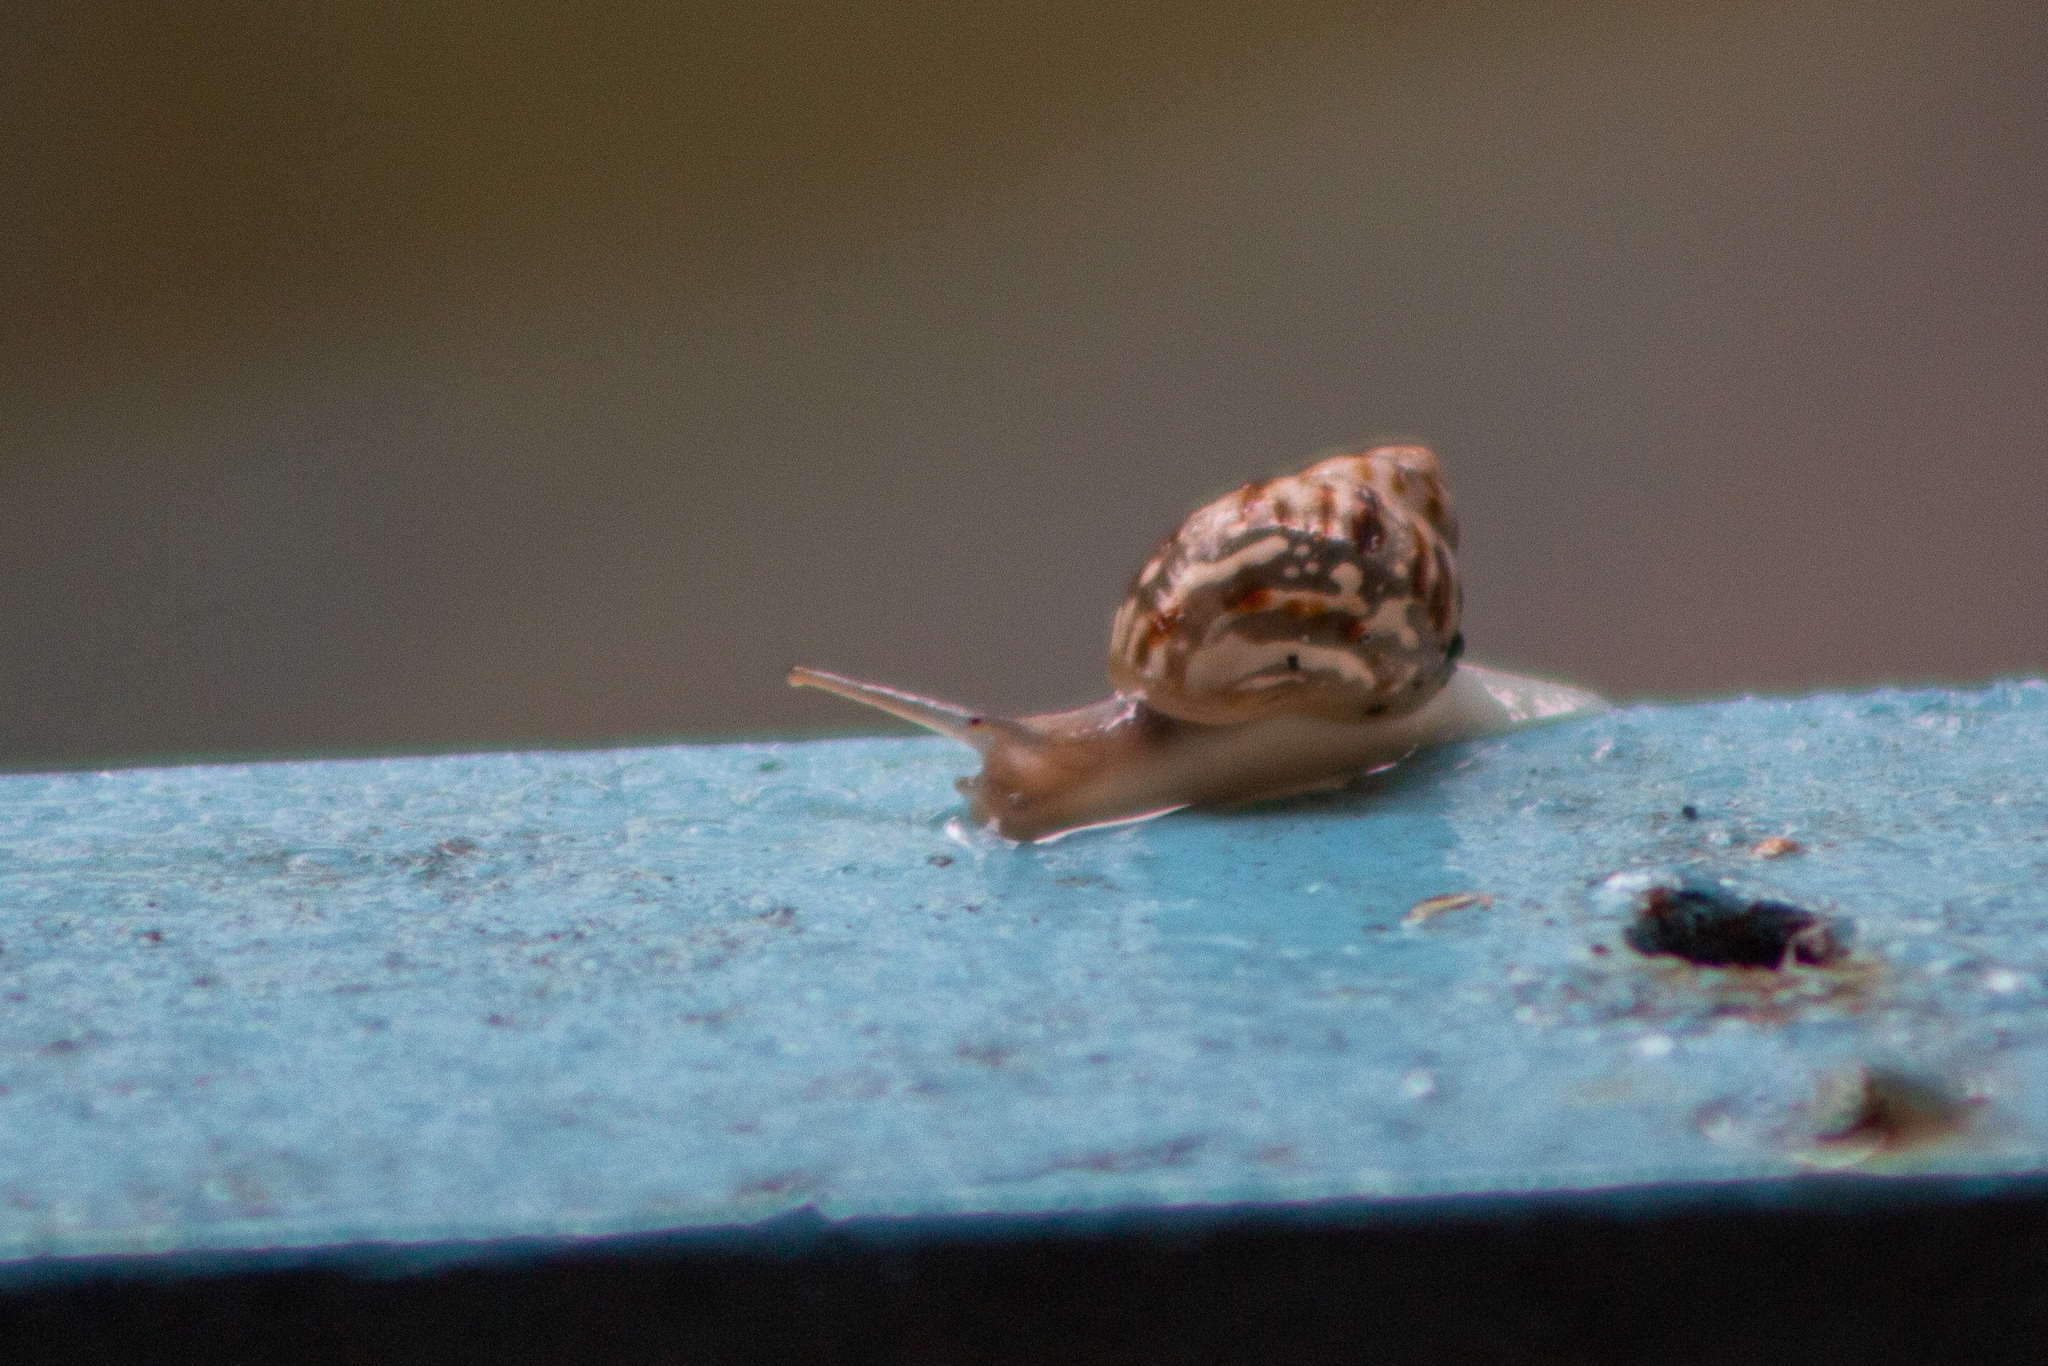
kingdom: Animalia
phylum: Mollusca
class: Gastropoda
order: Stylommatophora
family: Achatinidae
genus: Lissachatina
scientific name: Lissachatina fulica
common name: Giant african snail
